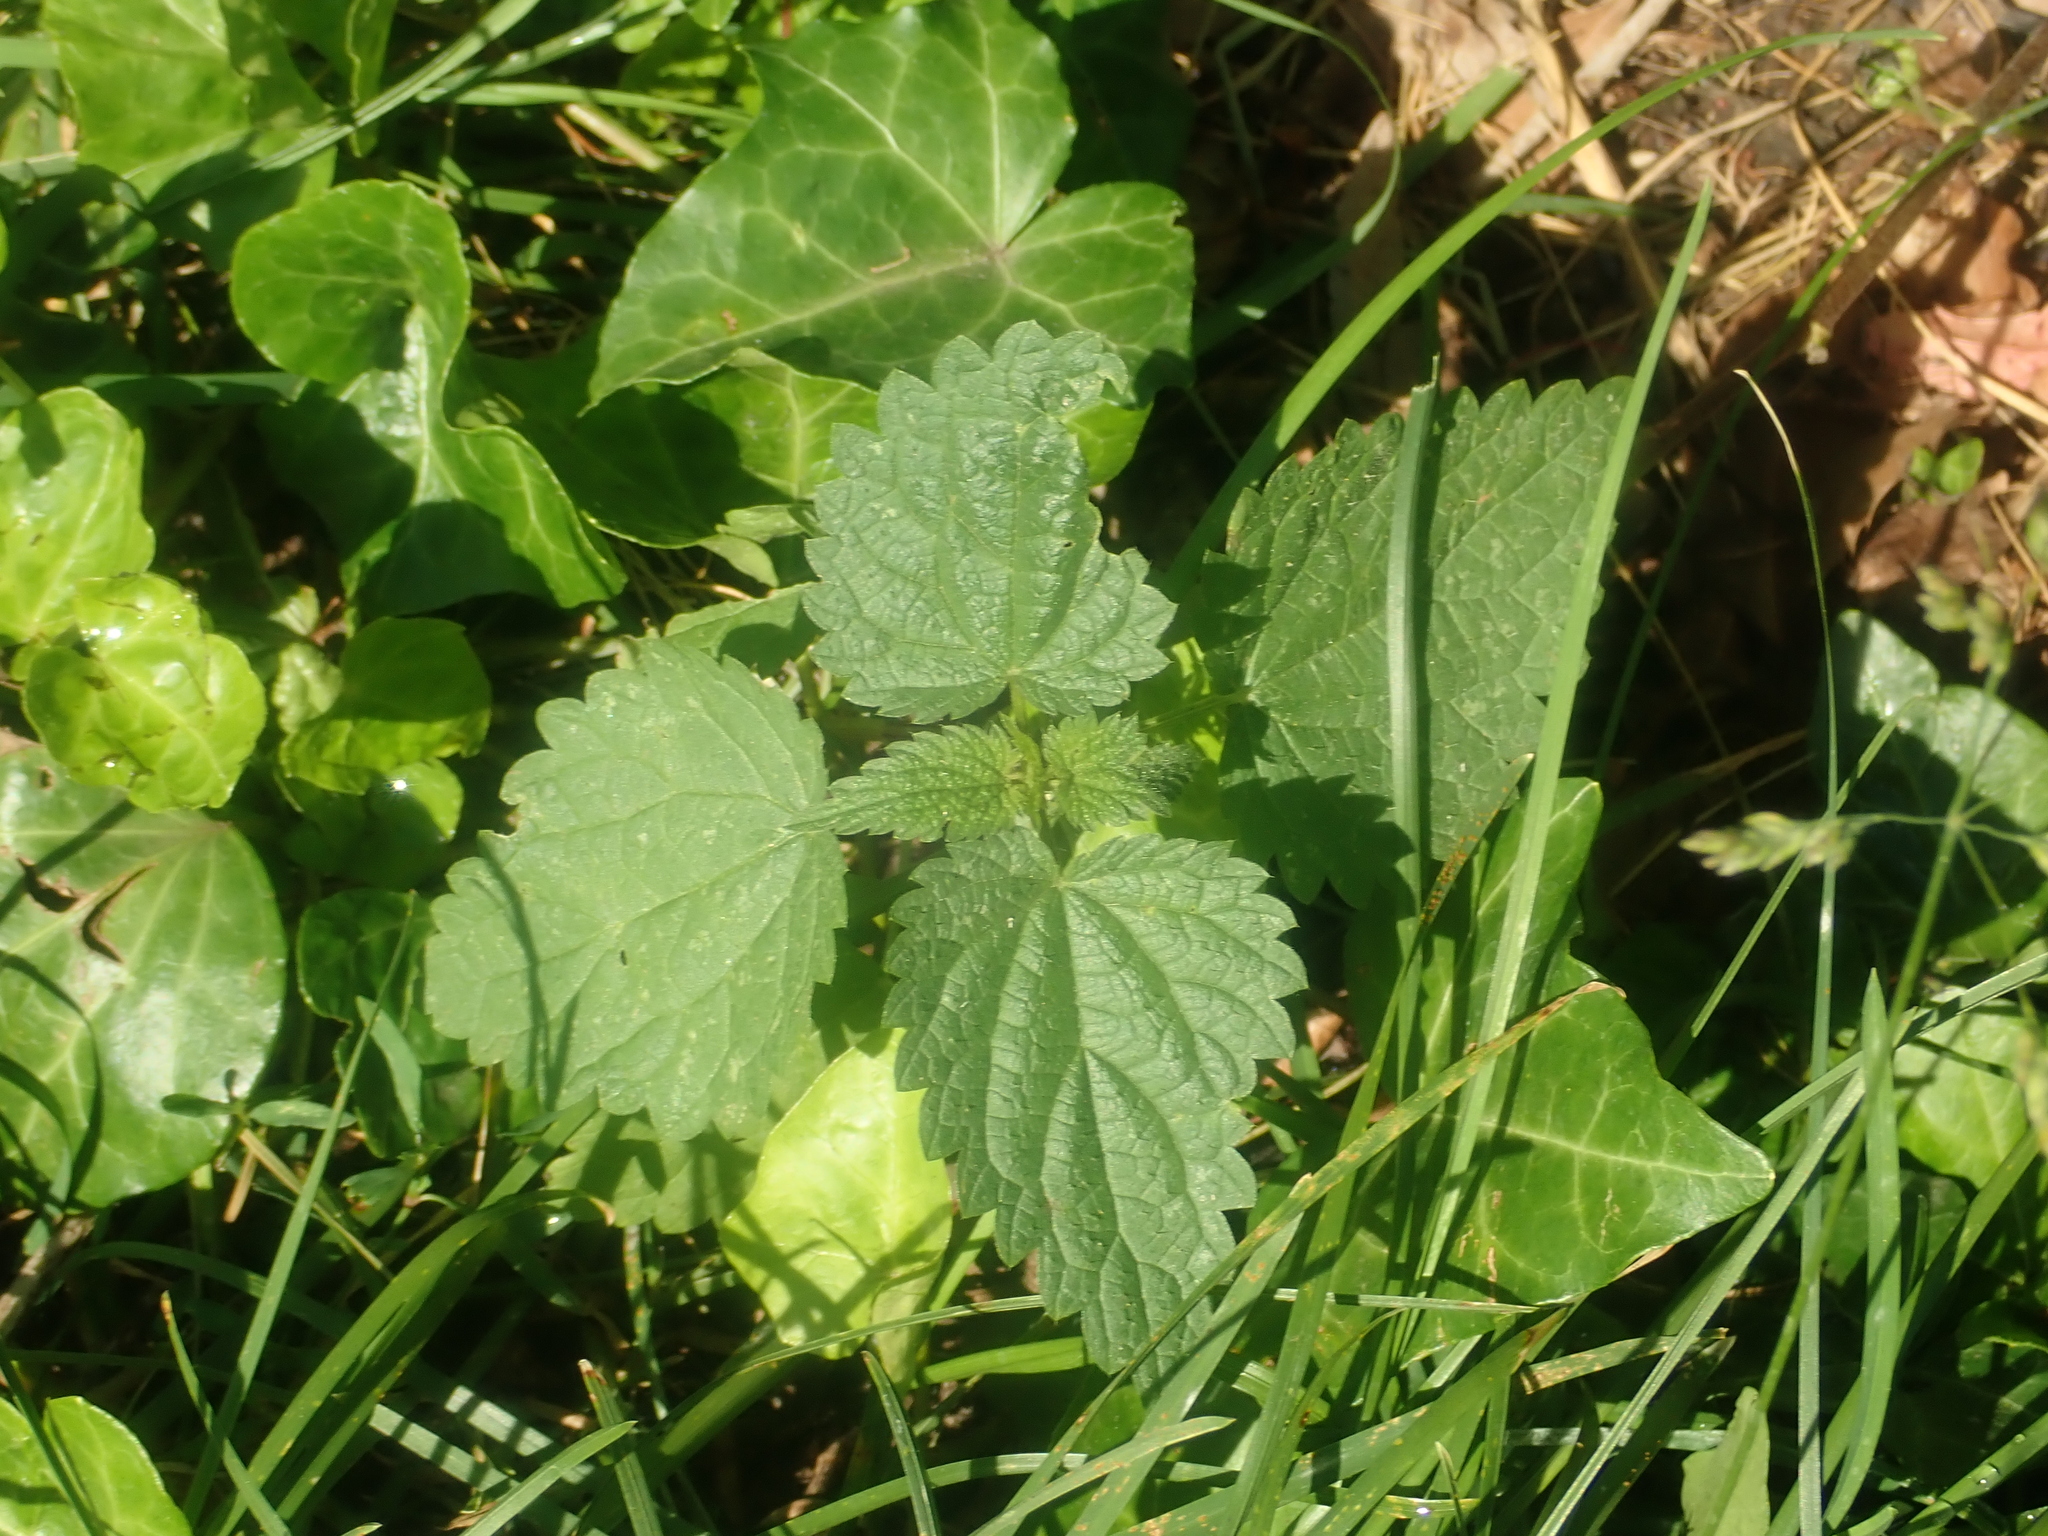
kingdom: Plantae
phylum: Tracheophyta
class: Magnoliopsida
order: Rosales
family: Urticaceae
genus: Urtica
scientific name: Urtica dioica
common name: Common nettle
